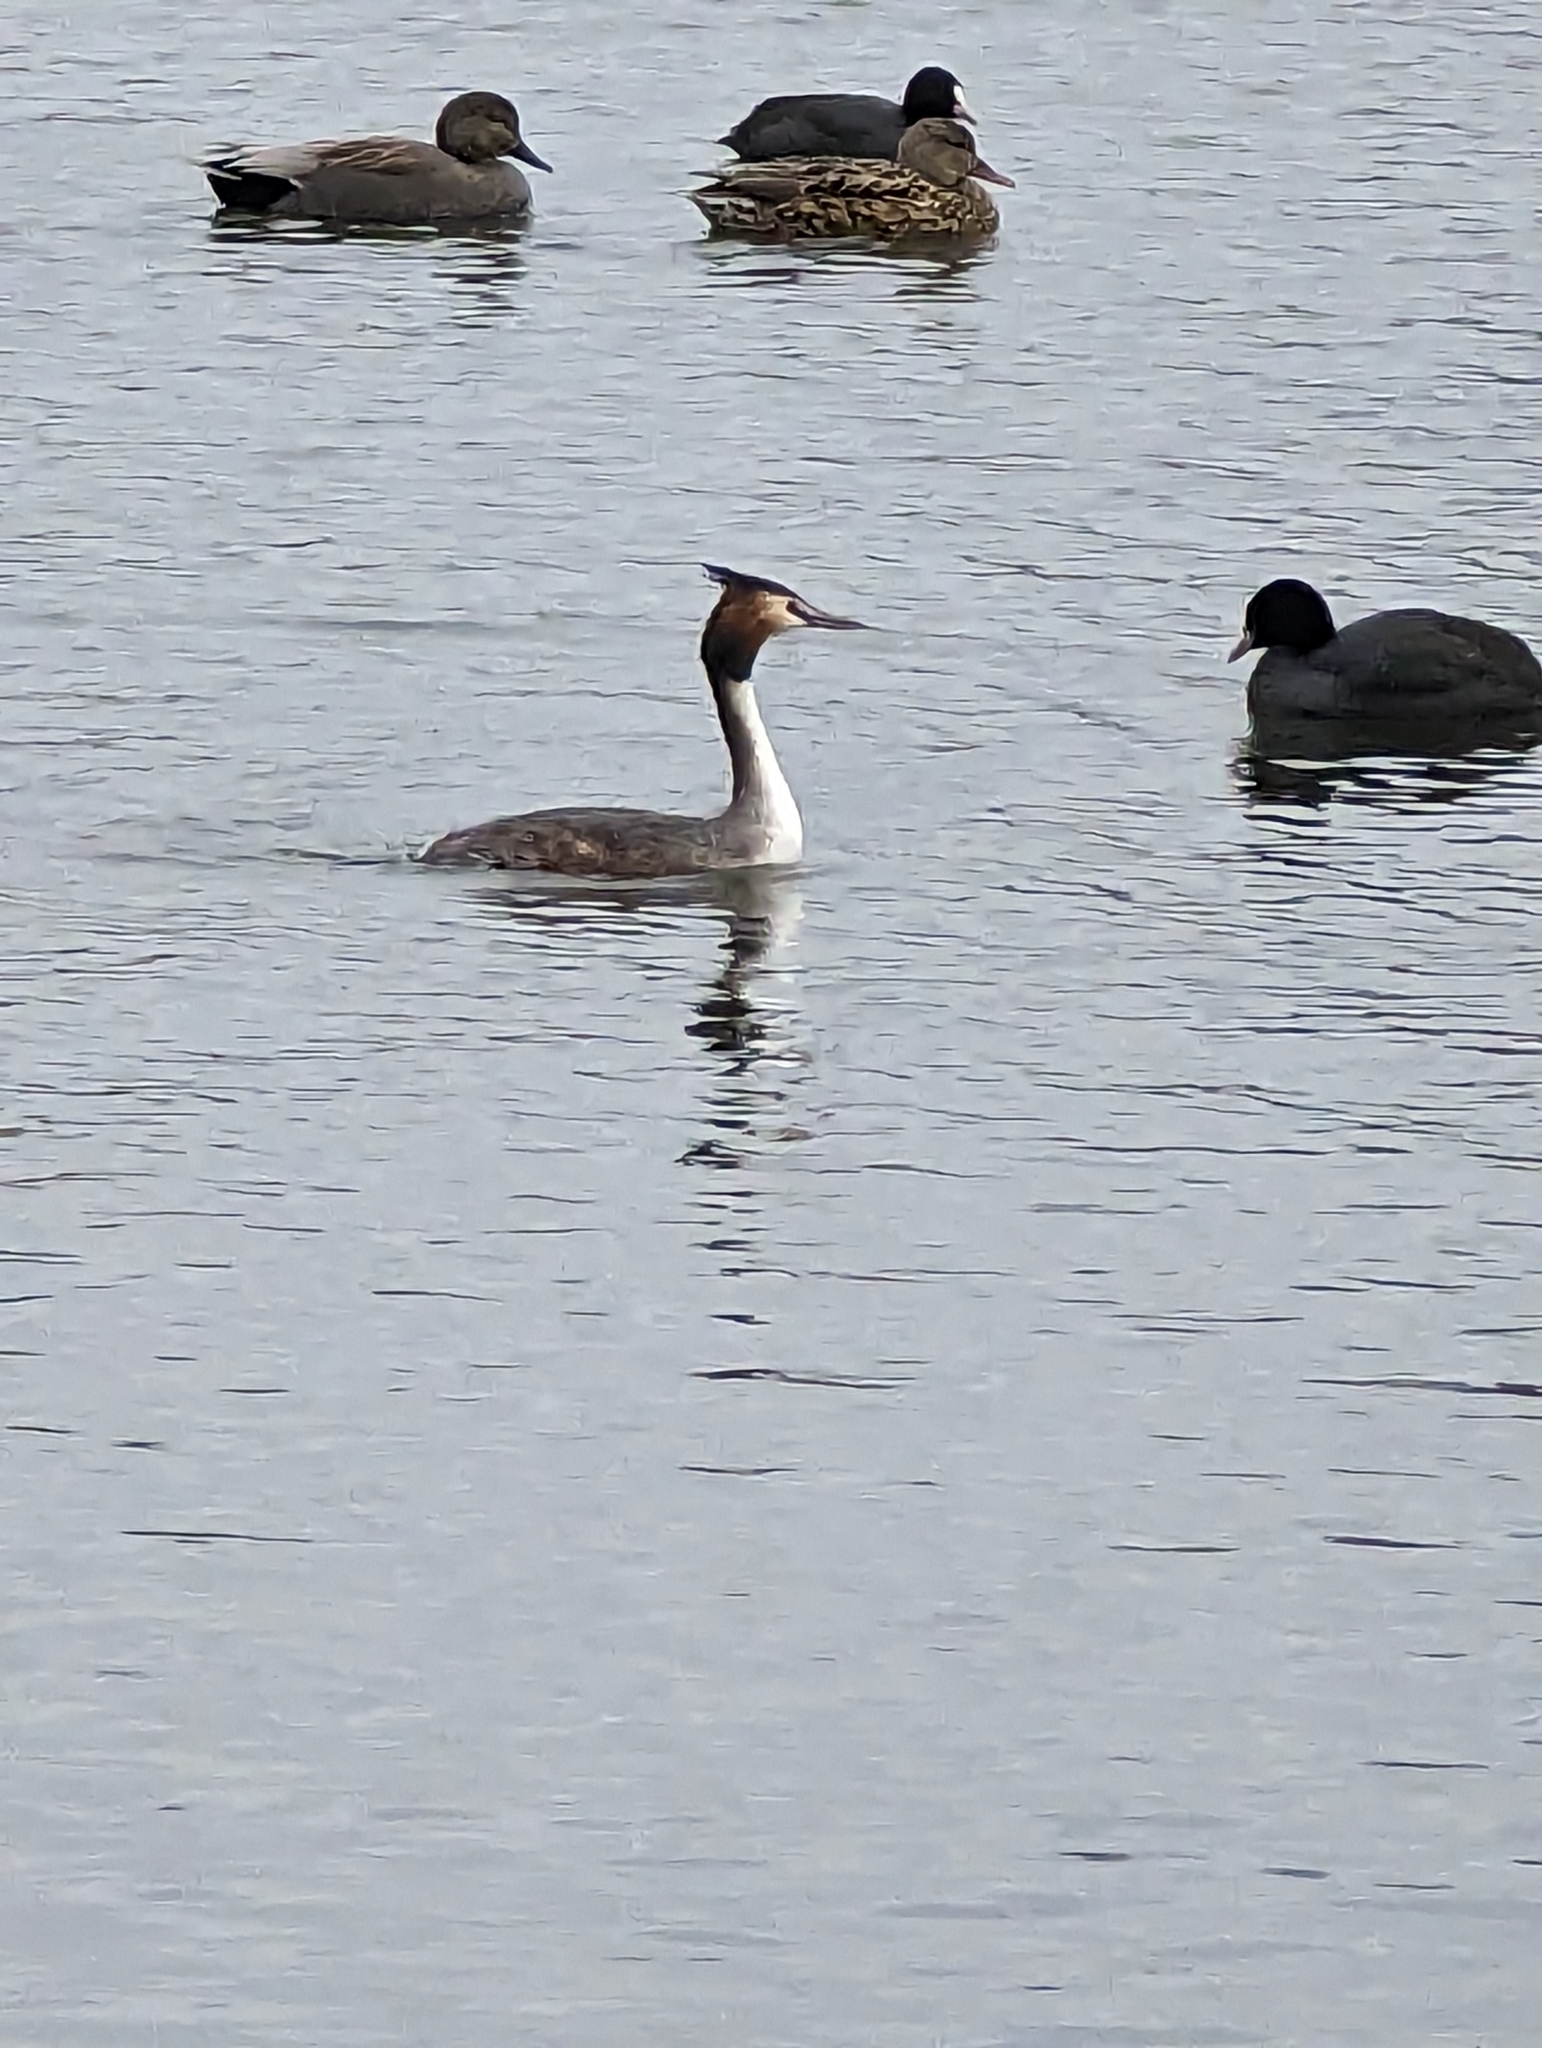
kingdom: Animalia
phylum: Chordata
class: Aves
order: Podicipediformes
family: Podicipedidae
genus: Podiceps
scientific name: Podiceps cristatus
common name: Great crested grebe
